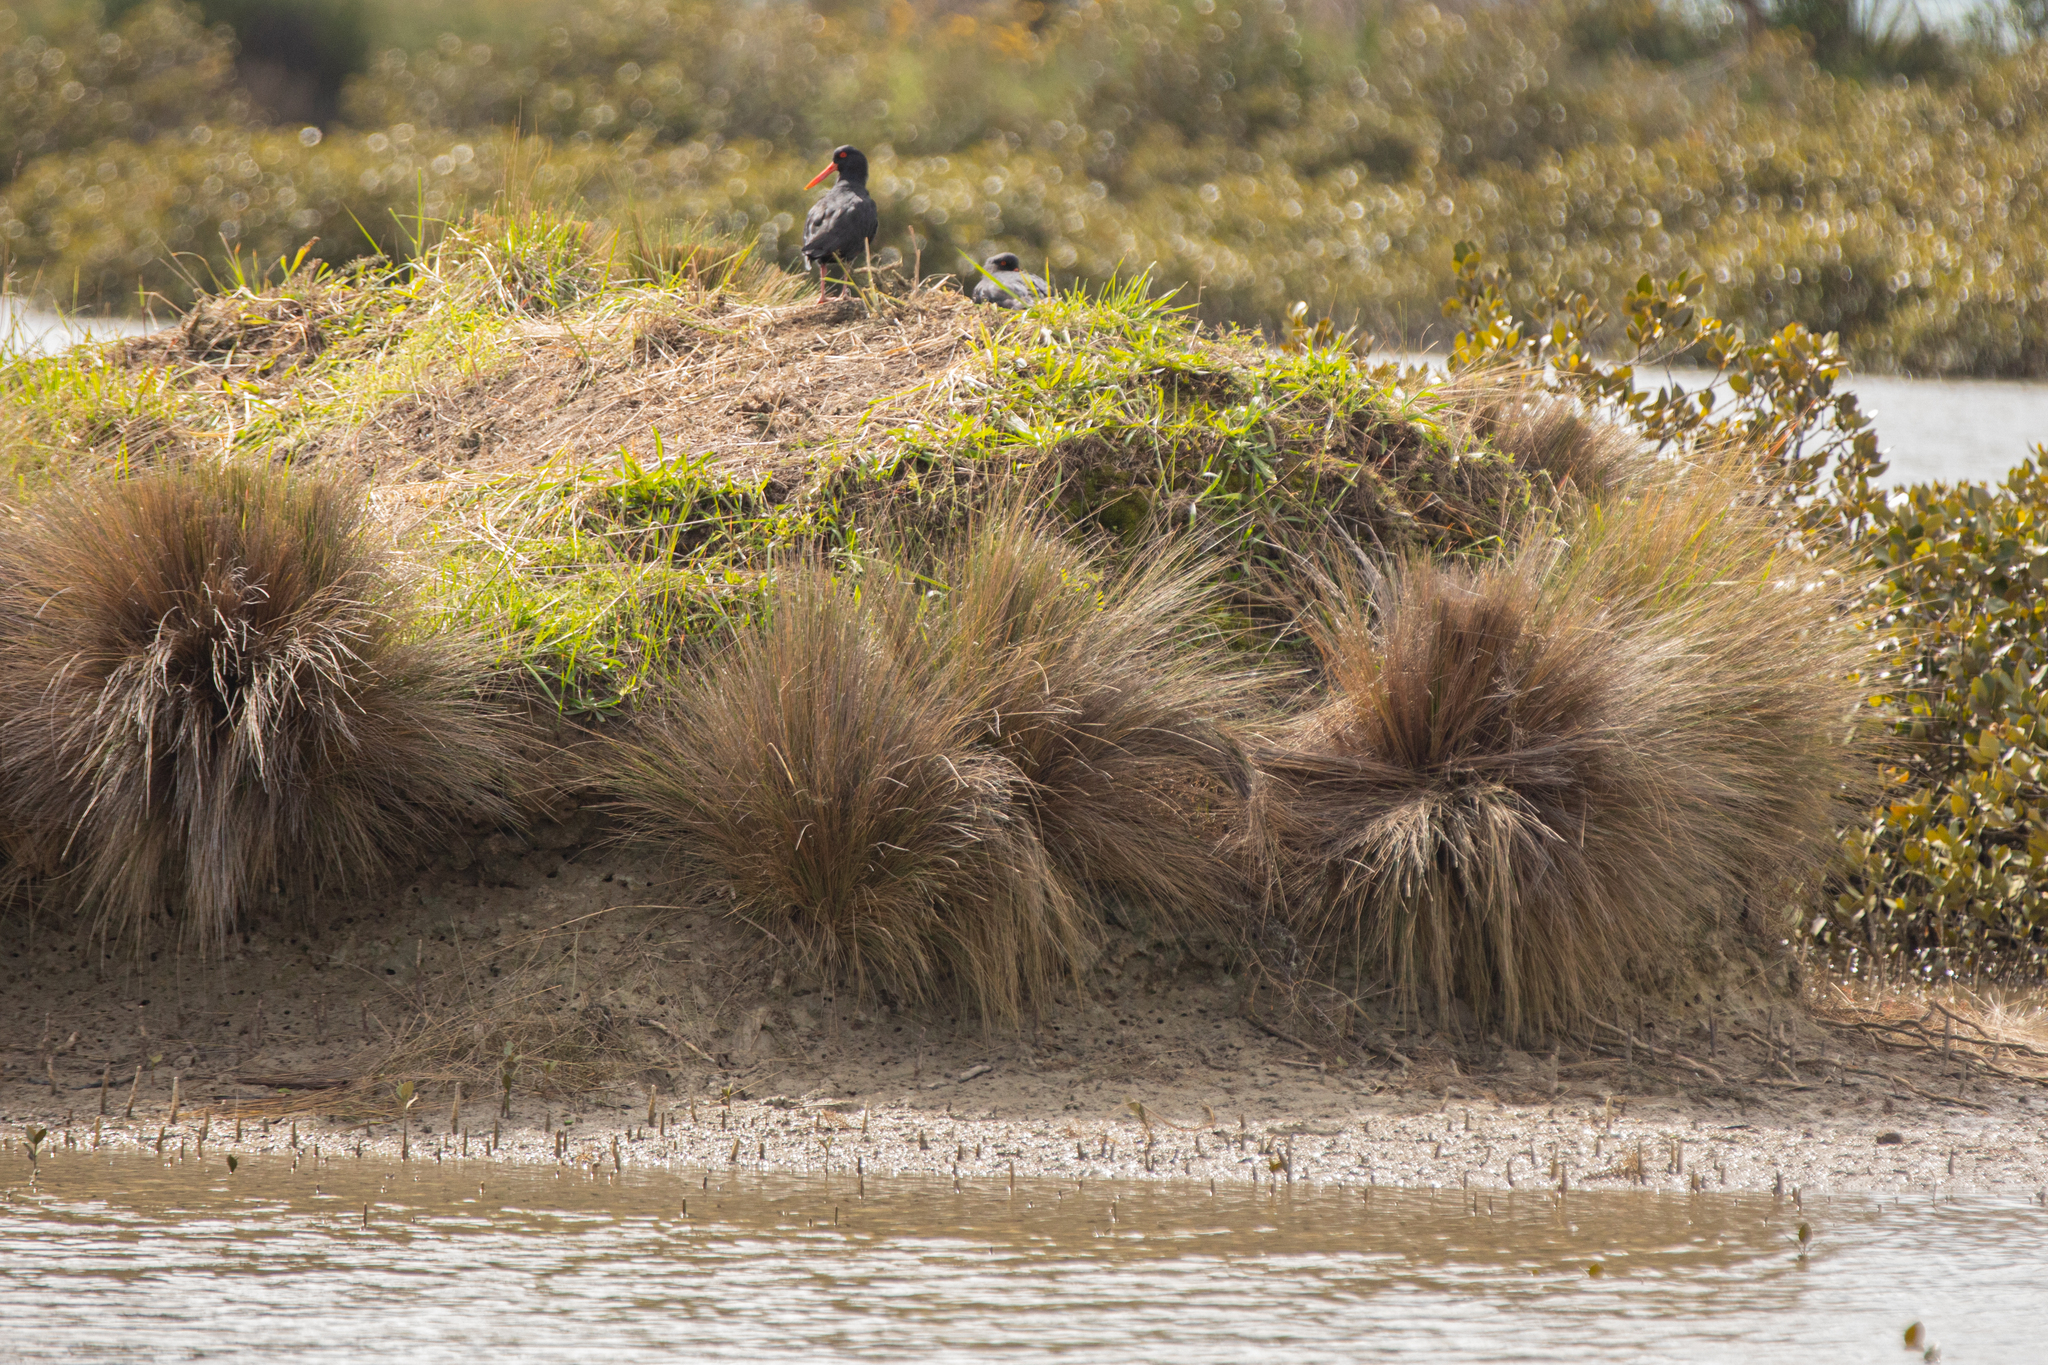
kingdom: Animalia
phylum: Chordata
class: Aves
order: Charadriiformes
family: Haematopodidae
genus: Haematopus
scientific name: Haematopus unicolor
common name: Variable oystercatcher
